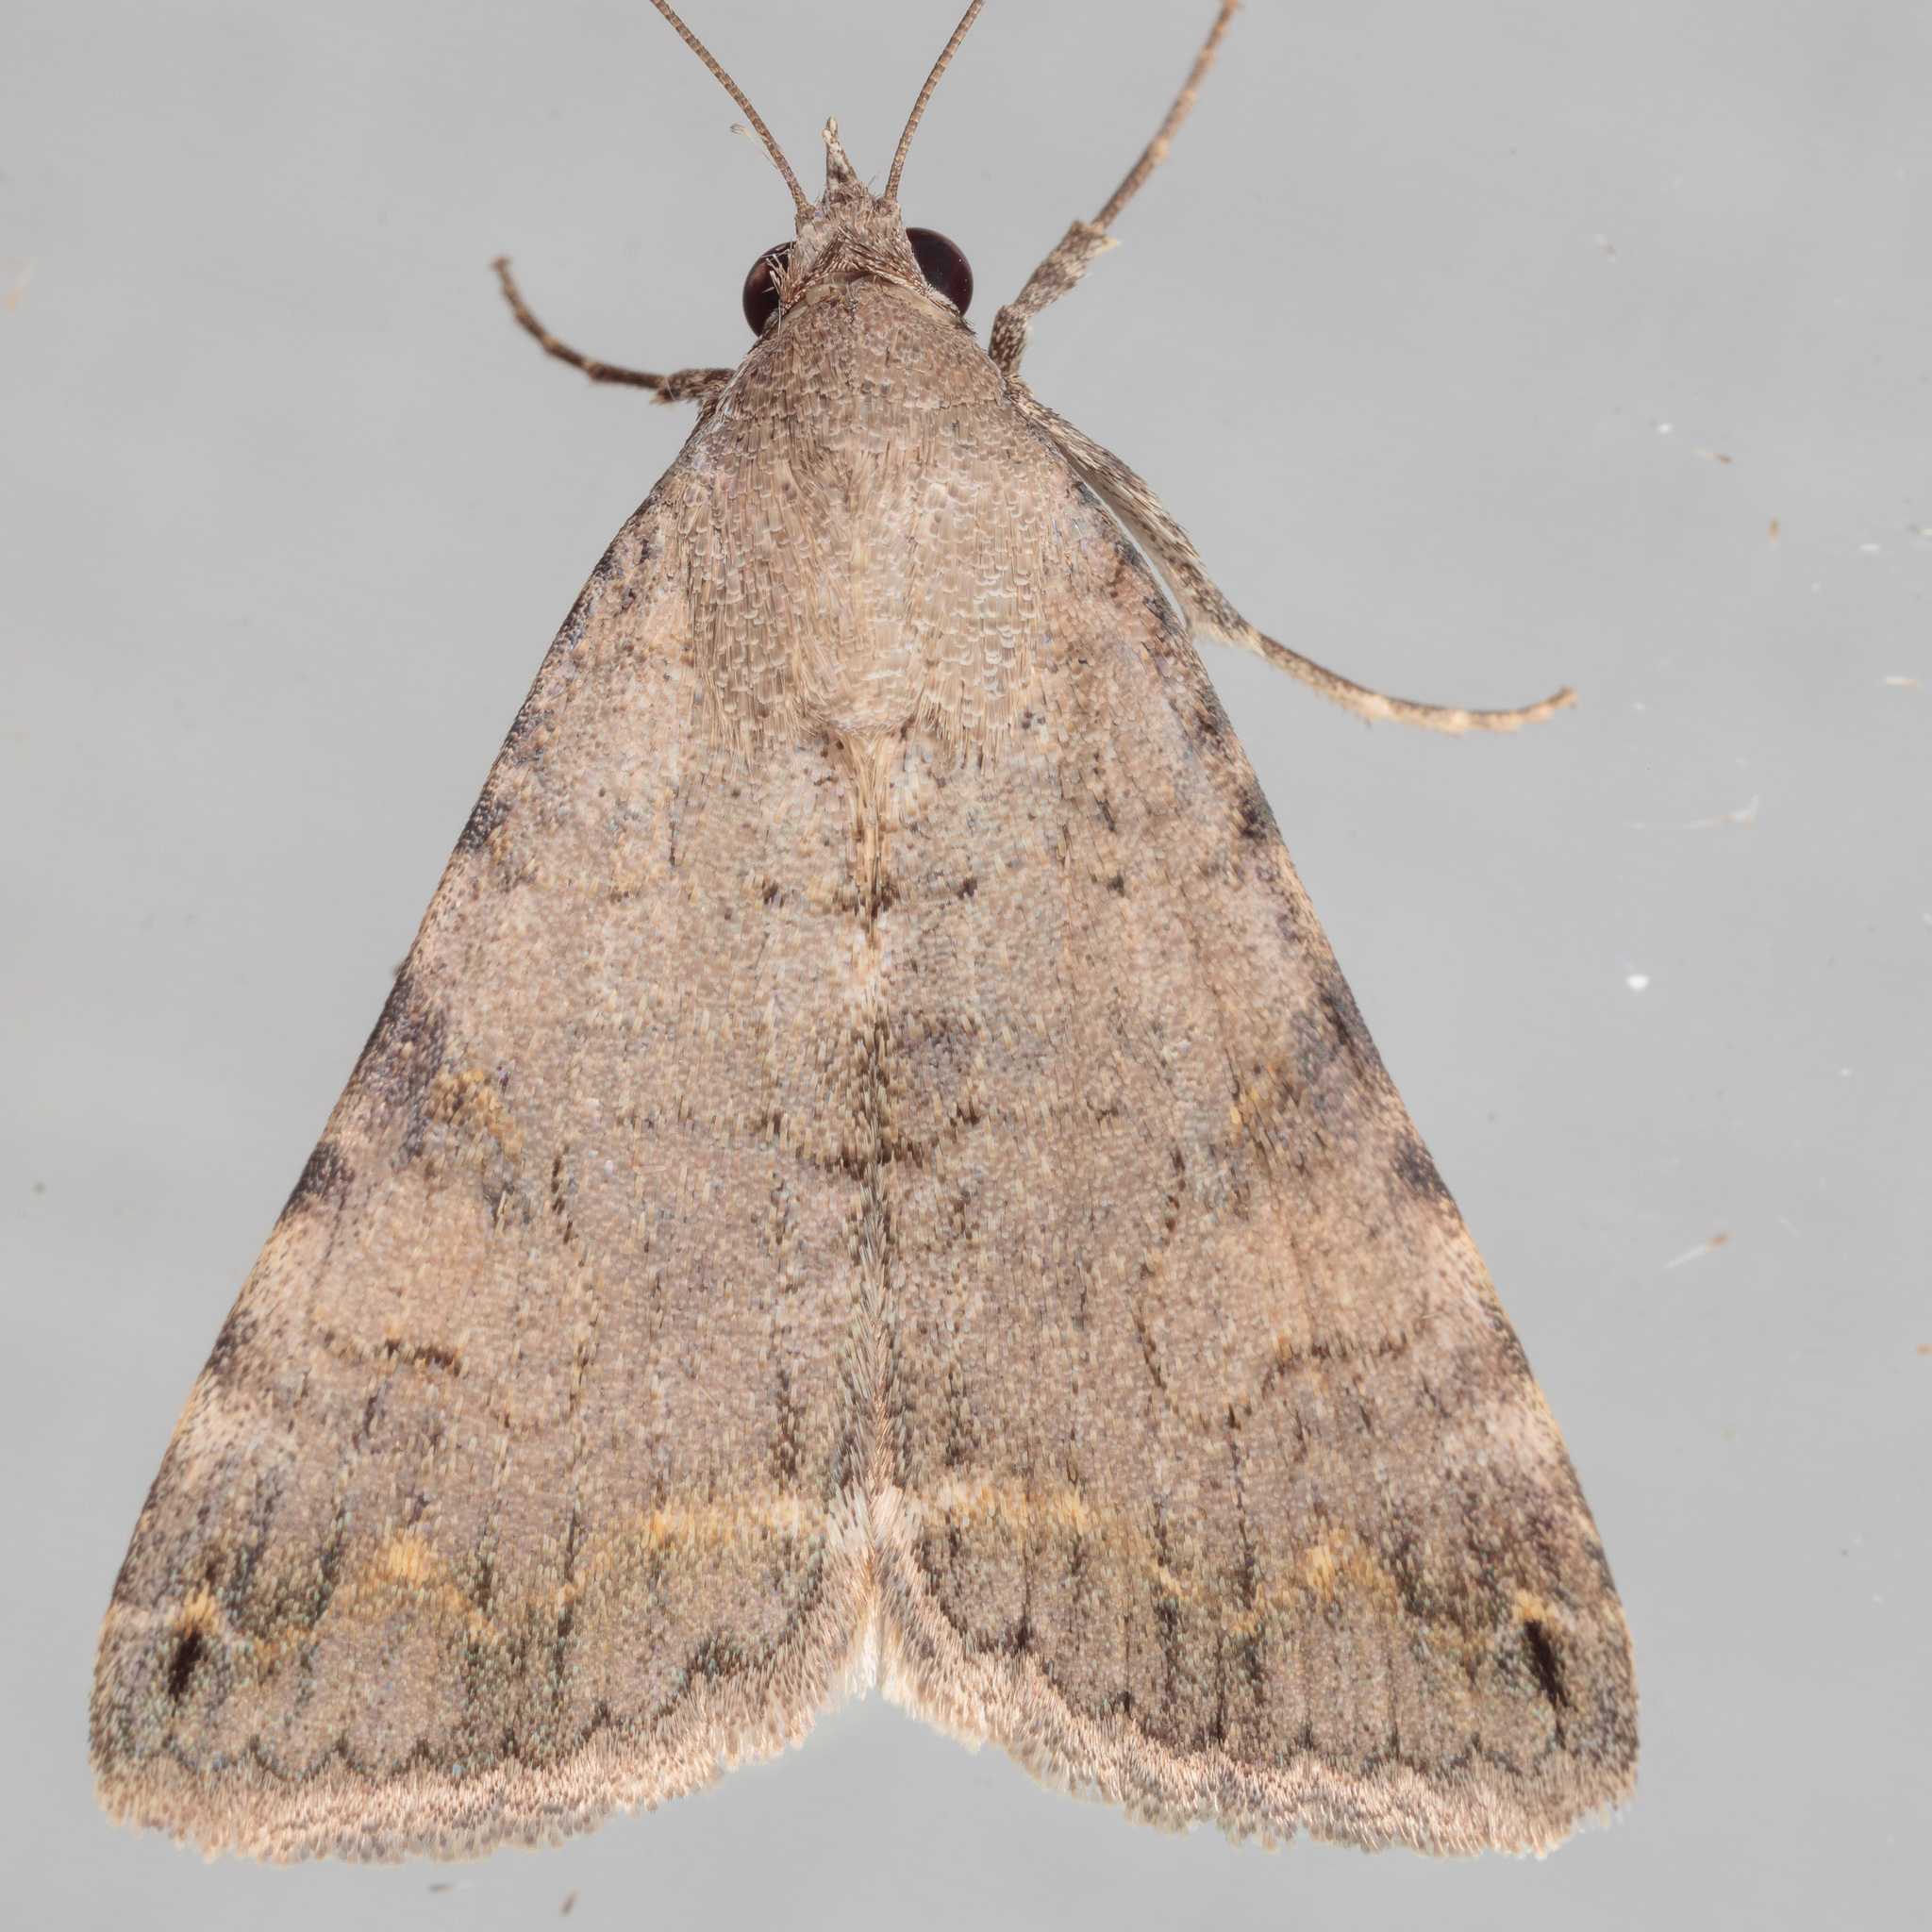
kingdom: Animalia
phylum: Arthropoda
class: Insecta
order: Lepidoptera
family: Erebidae
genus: Bulia
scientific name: Bulia
